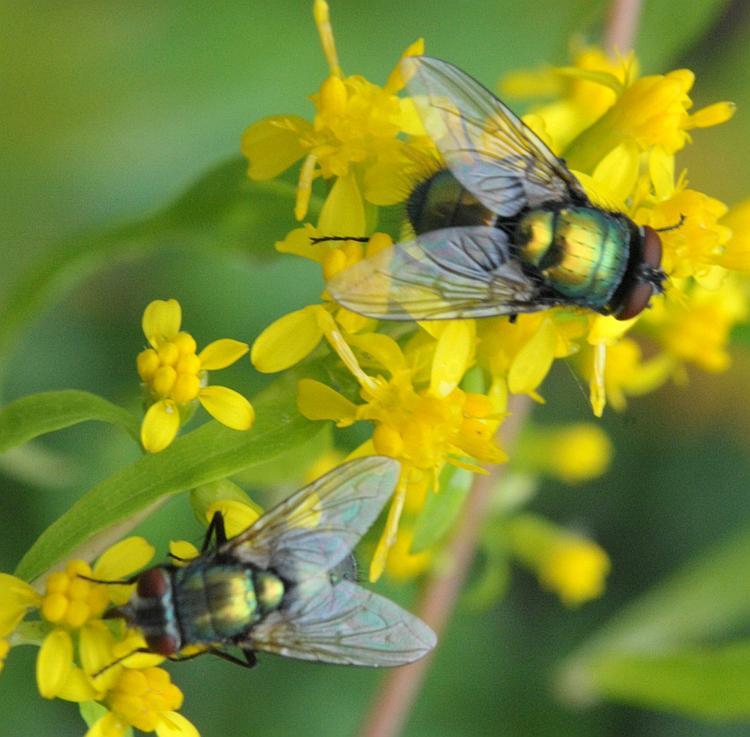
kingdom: Animalia
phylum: Arthropoda
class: Insecta
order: Diptera
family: Calliphoridae
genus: Lucilia
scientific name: Lucilia sericata
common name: Blow fly
